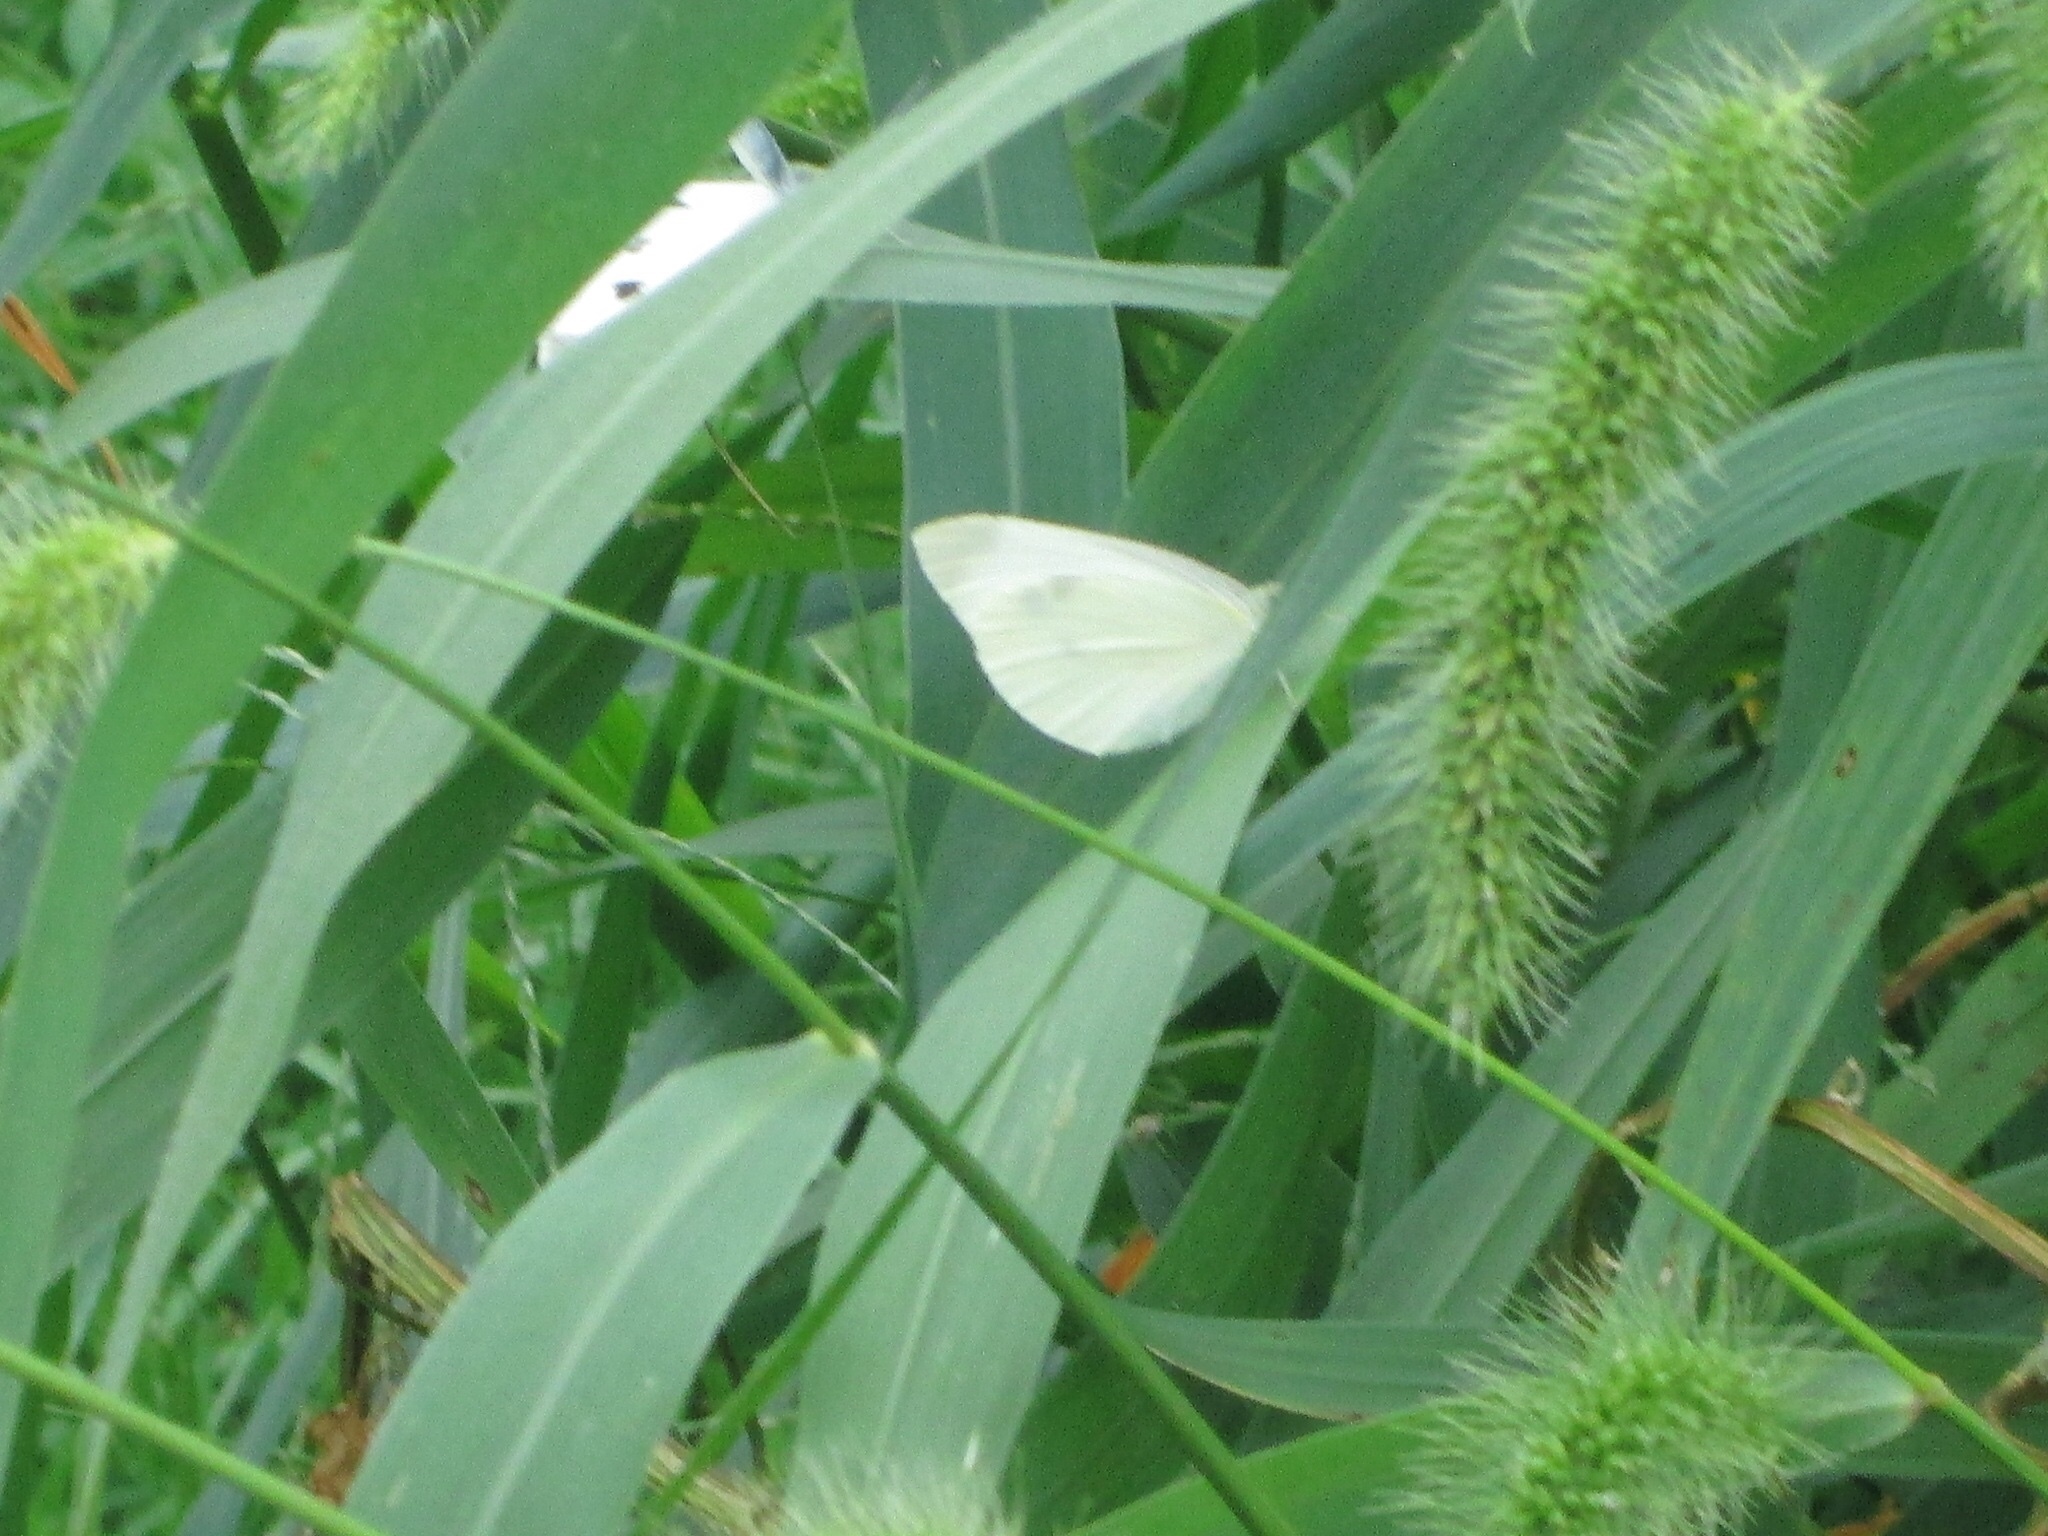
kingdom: Animalia
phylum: Arthropoda
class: Insecta
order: Lepidoptera
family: Pieridae
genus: Pieris
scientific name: Pieris rapae
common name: Small white
